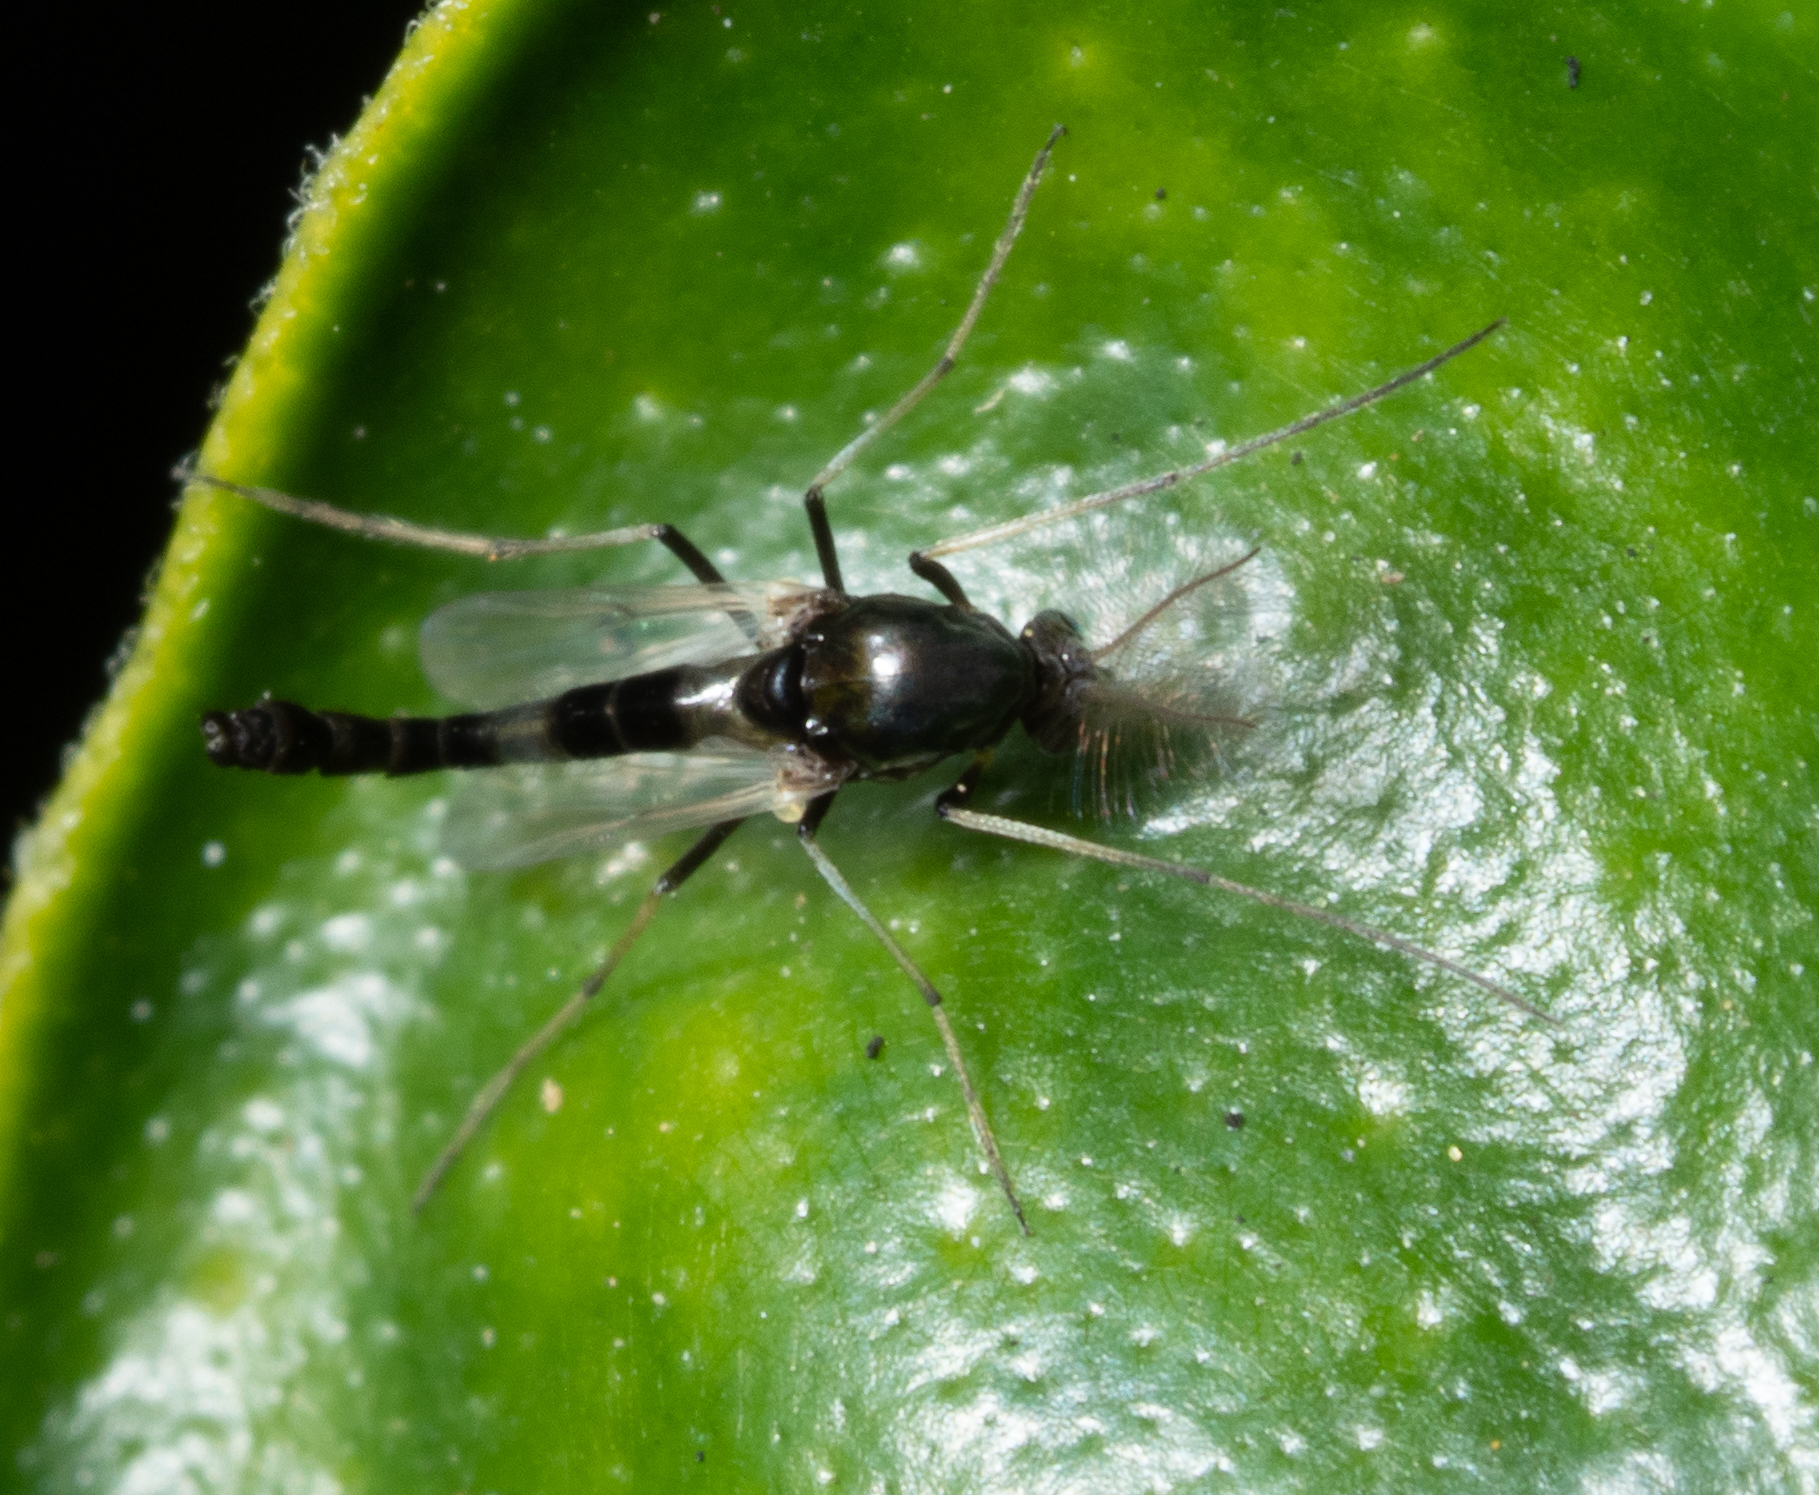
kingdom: Animalia
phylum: Arthropoda
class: Insecta
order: Diptera
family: Chironomidae
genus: Cricotopus
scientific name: Cricotopus albitarsis
